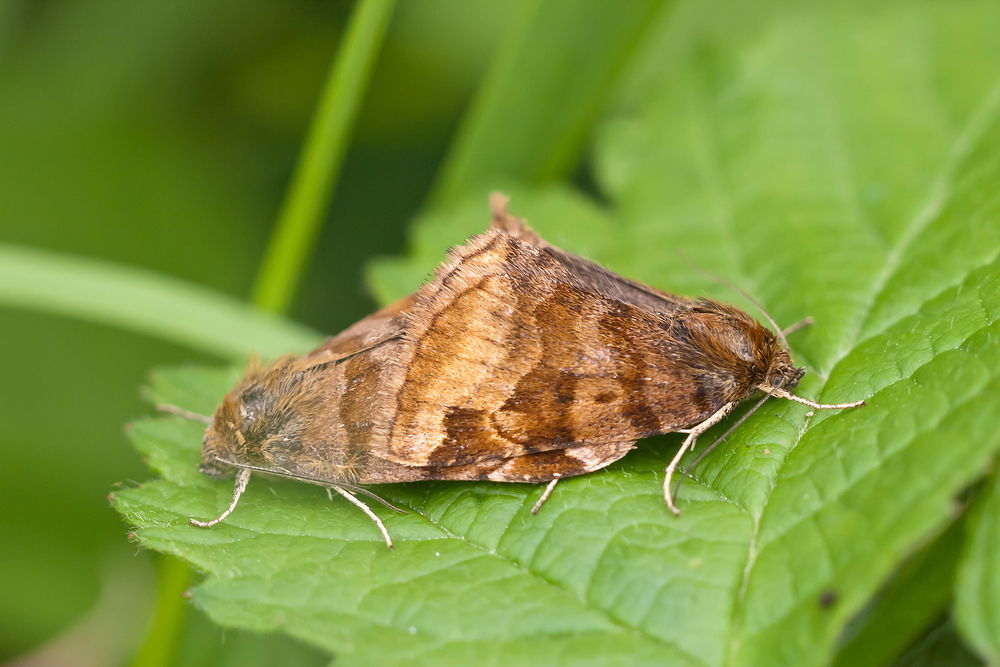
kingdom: Animalia
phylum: Arthropoda
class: Insecta
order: Lepidoptera
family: Erebidae
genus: Euclidia
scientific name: Euclidia glyphica
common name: Burnet companion
